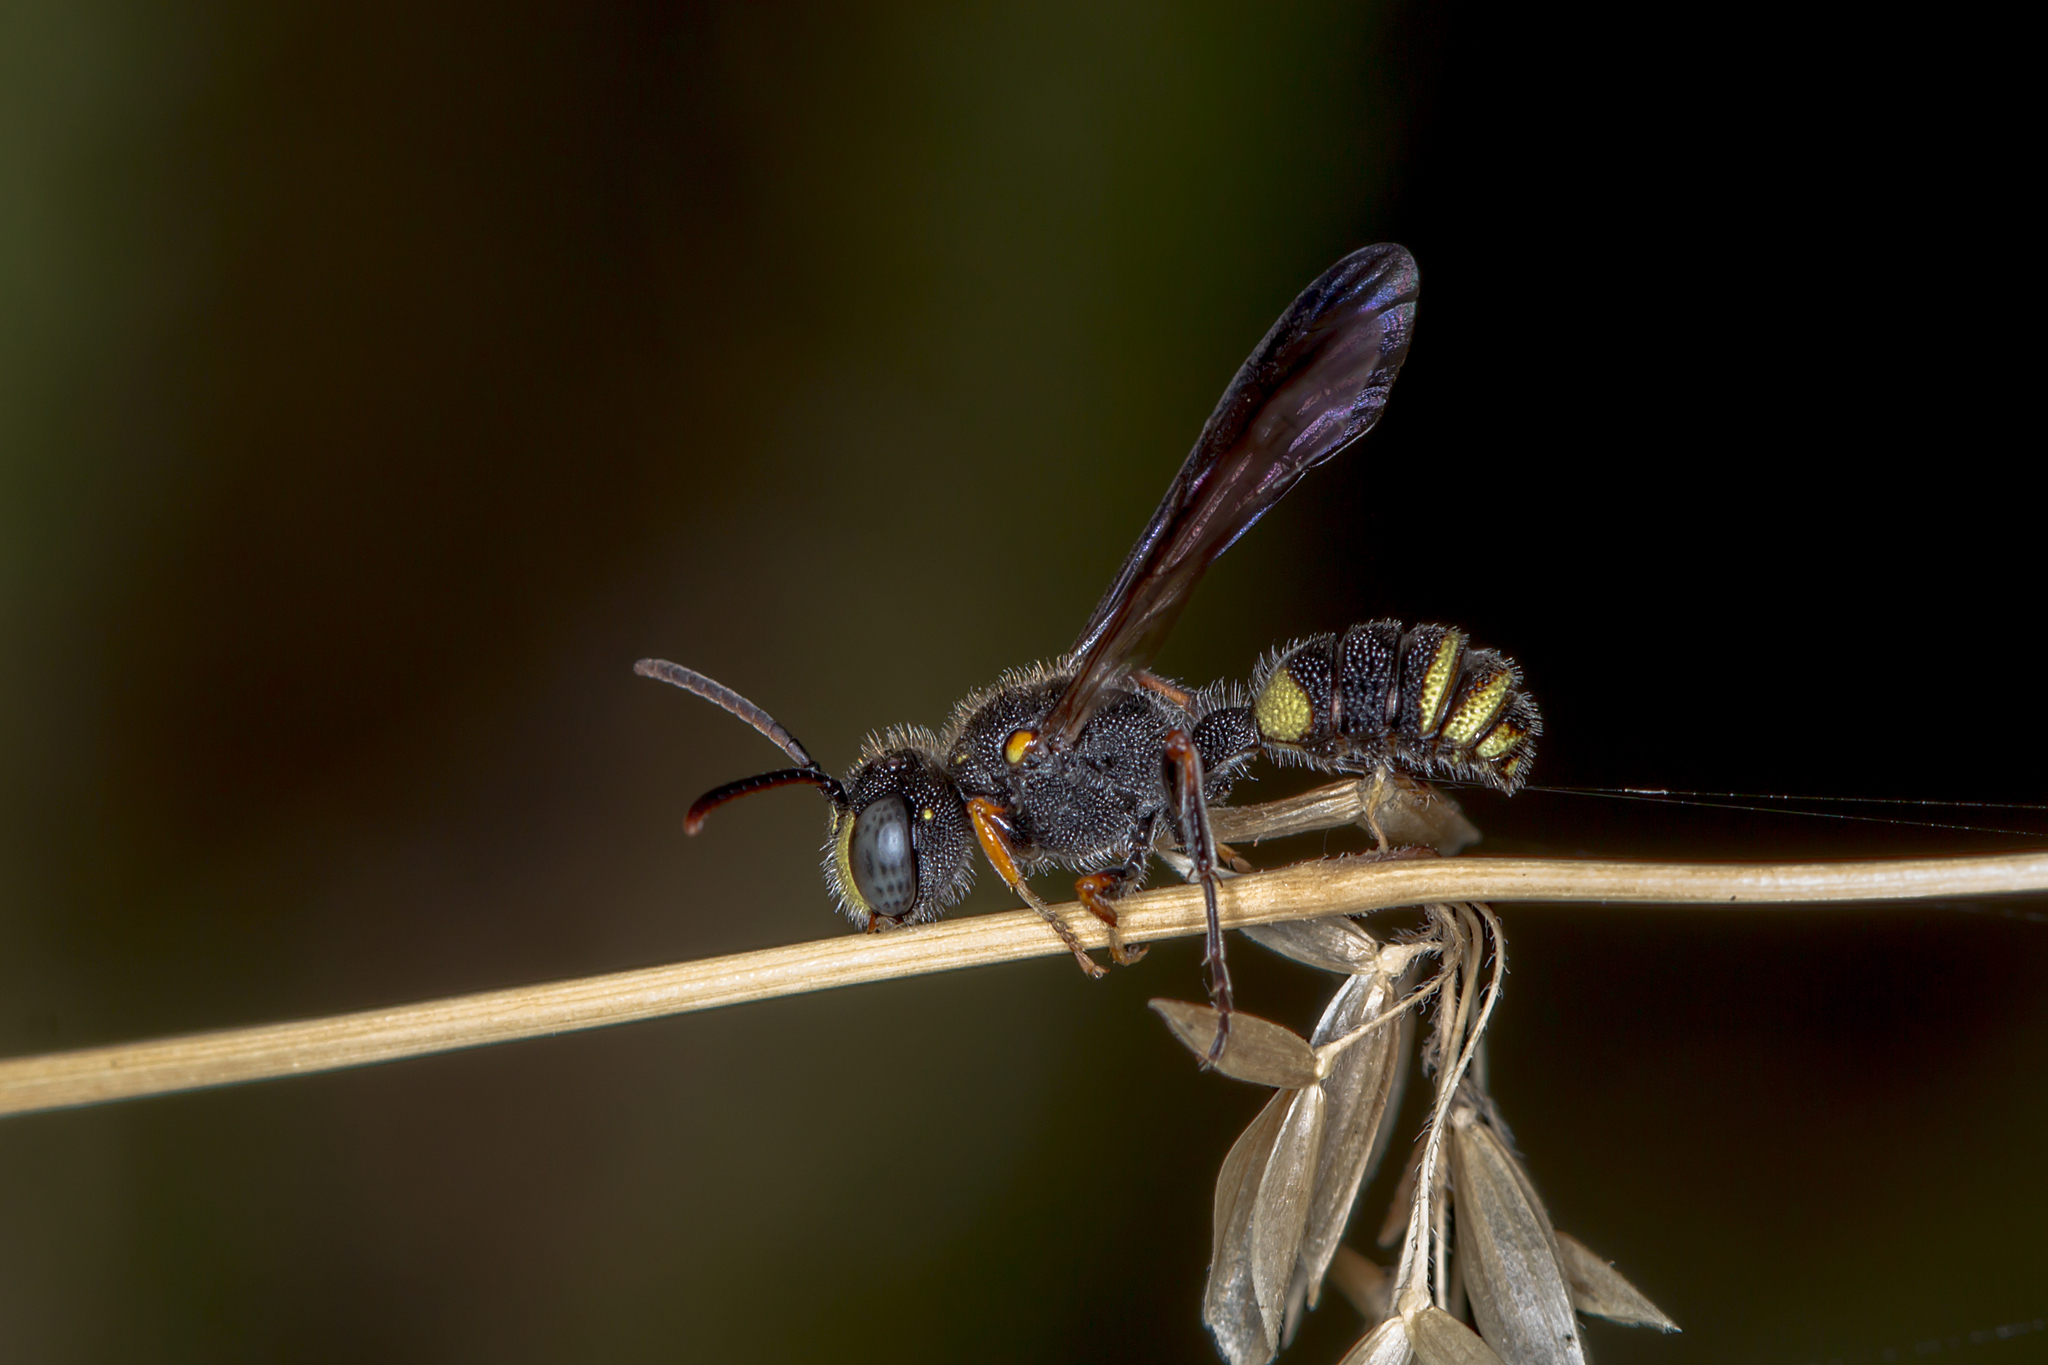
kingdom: Animalia
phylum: Arthropoda
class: Insecta
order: Hymenoptera
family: Crabronidae
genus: Cerceris
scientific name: Cerceris antipodes
